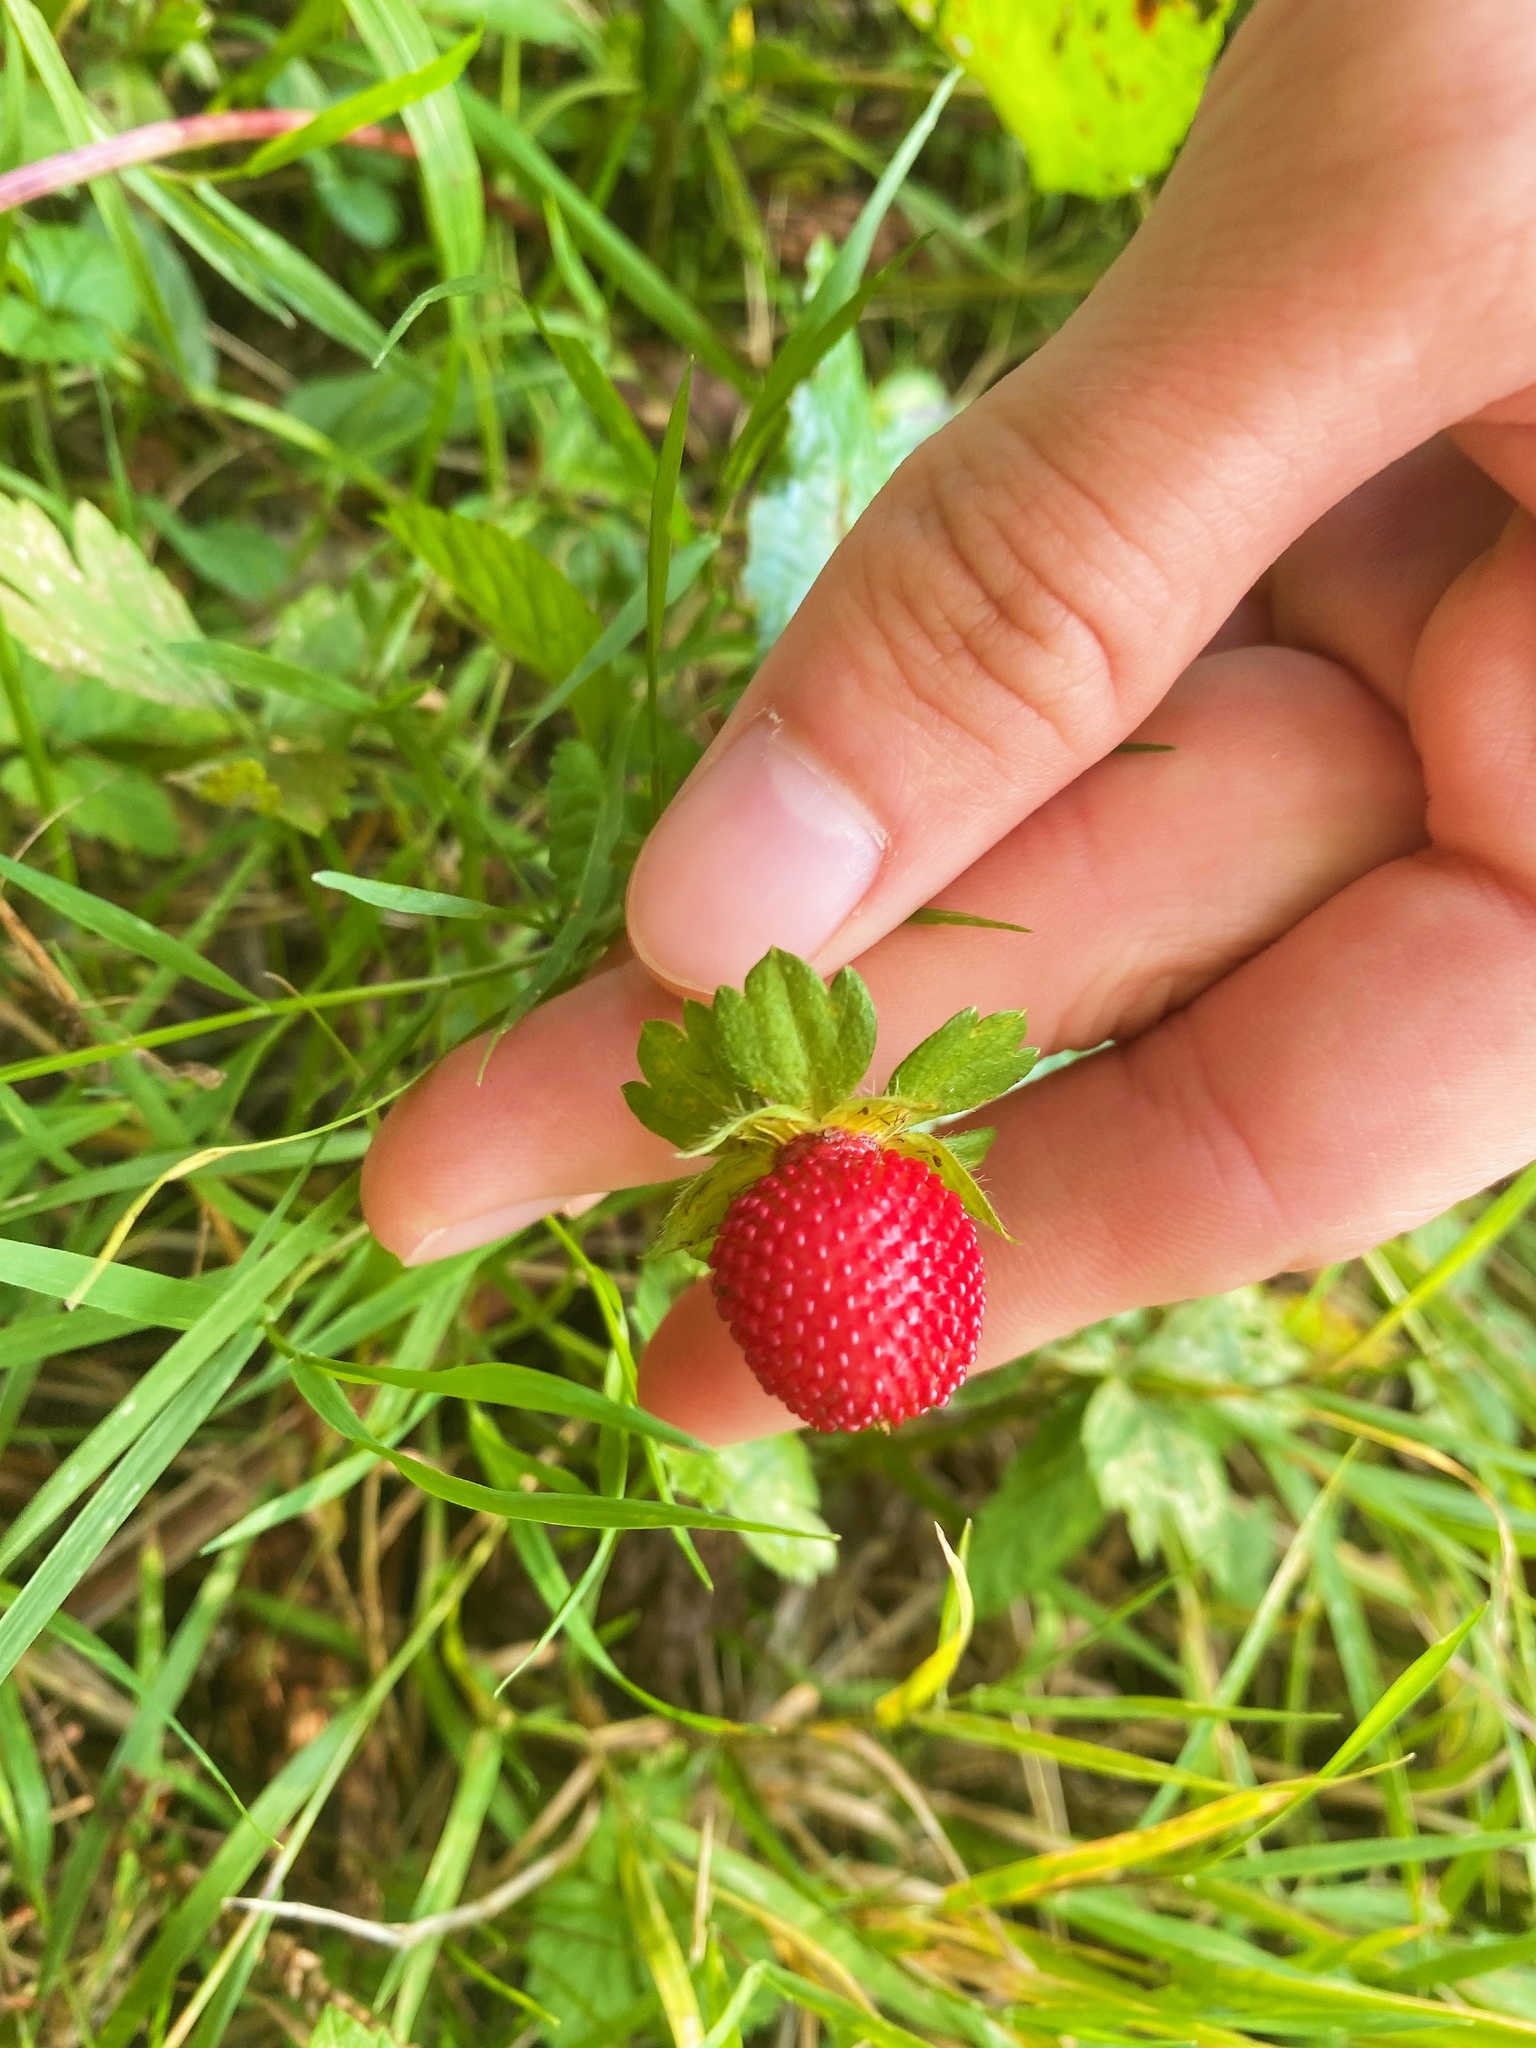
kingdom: Plantae
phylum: Tracheophyta
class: Magnoliopsida
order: Rosales
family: Rosaceae
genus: Potentilla
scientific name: Potentilla indica
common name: Yellow-flowered strawberry
